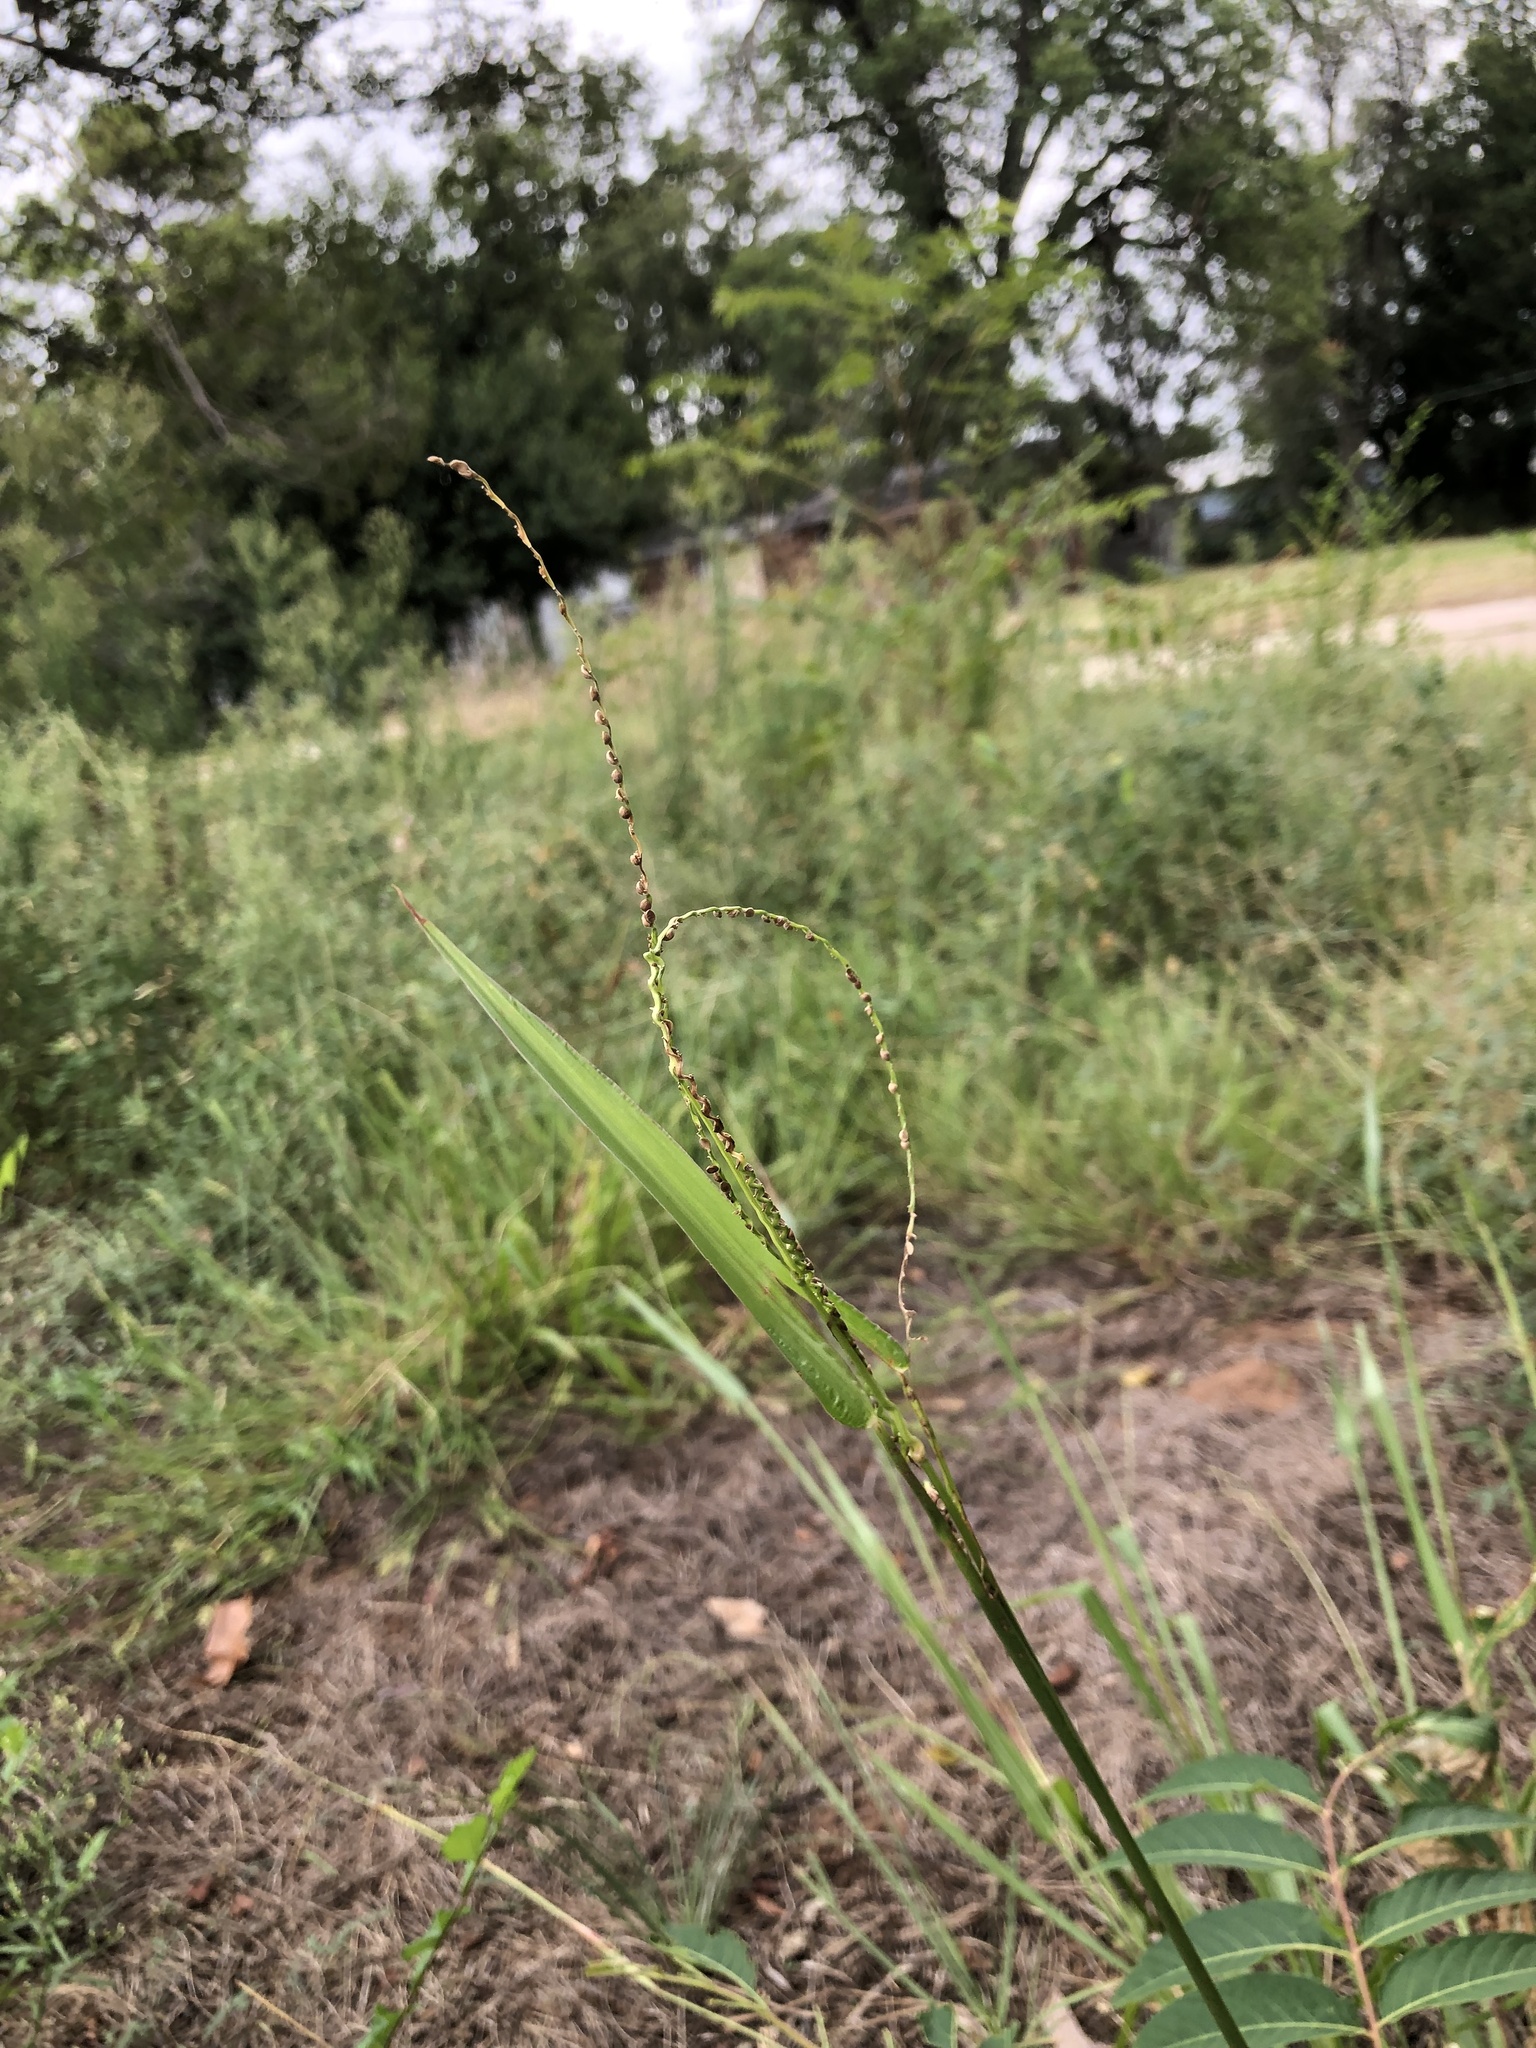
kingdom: Plantae
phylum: Tracheophyta
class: Liliopsida
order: Poales
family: Poaceae
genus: Paspalum
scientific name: Paspalum setaceum
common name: Slender paspalum
